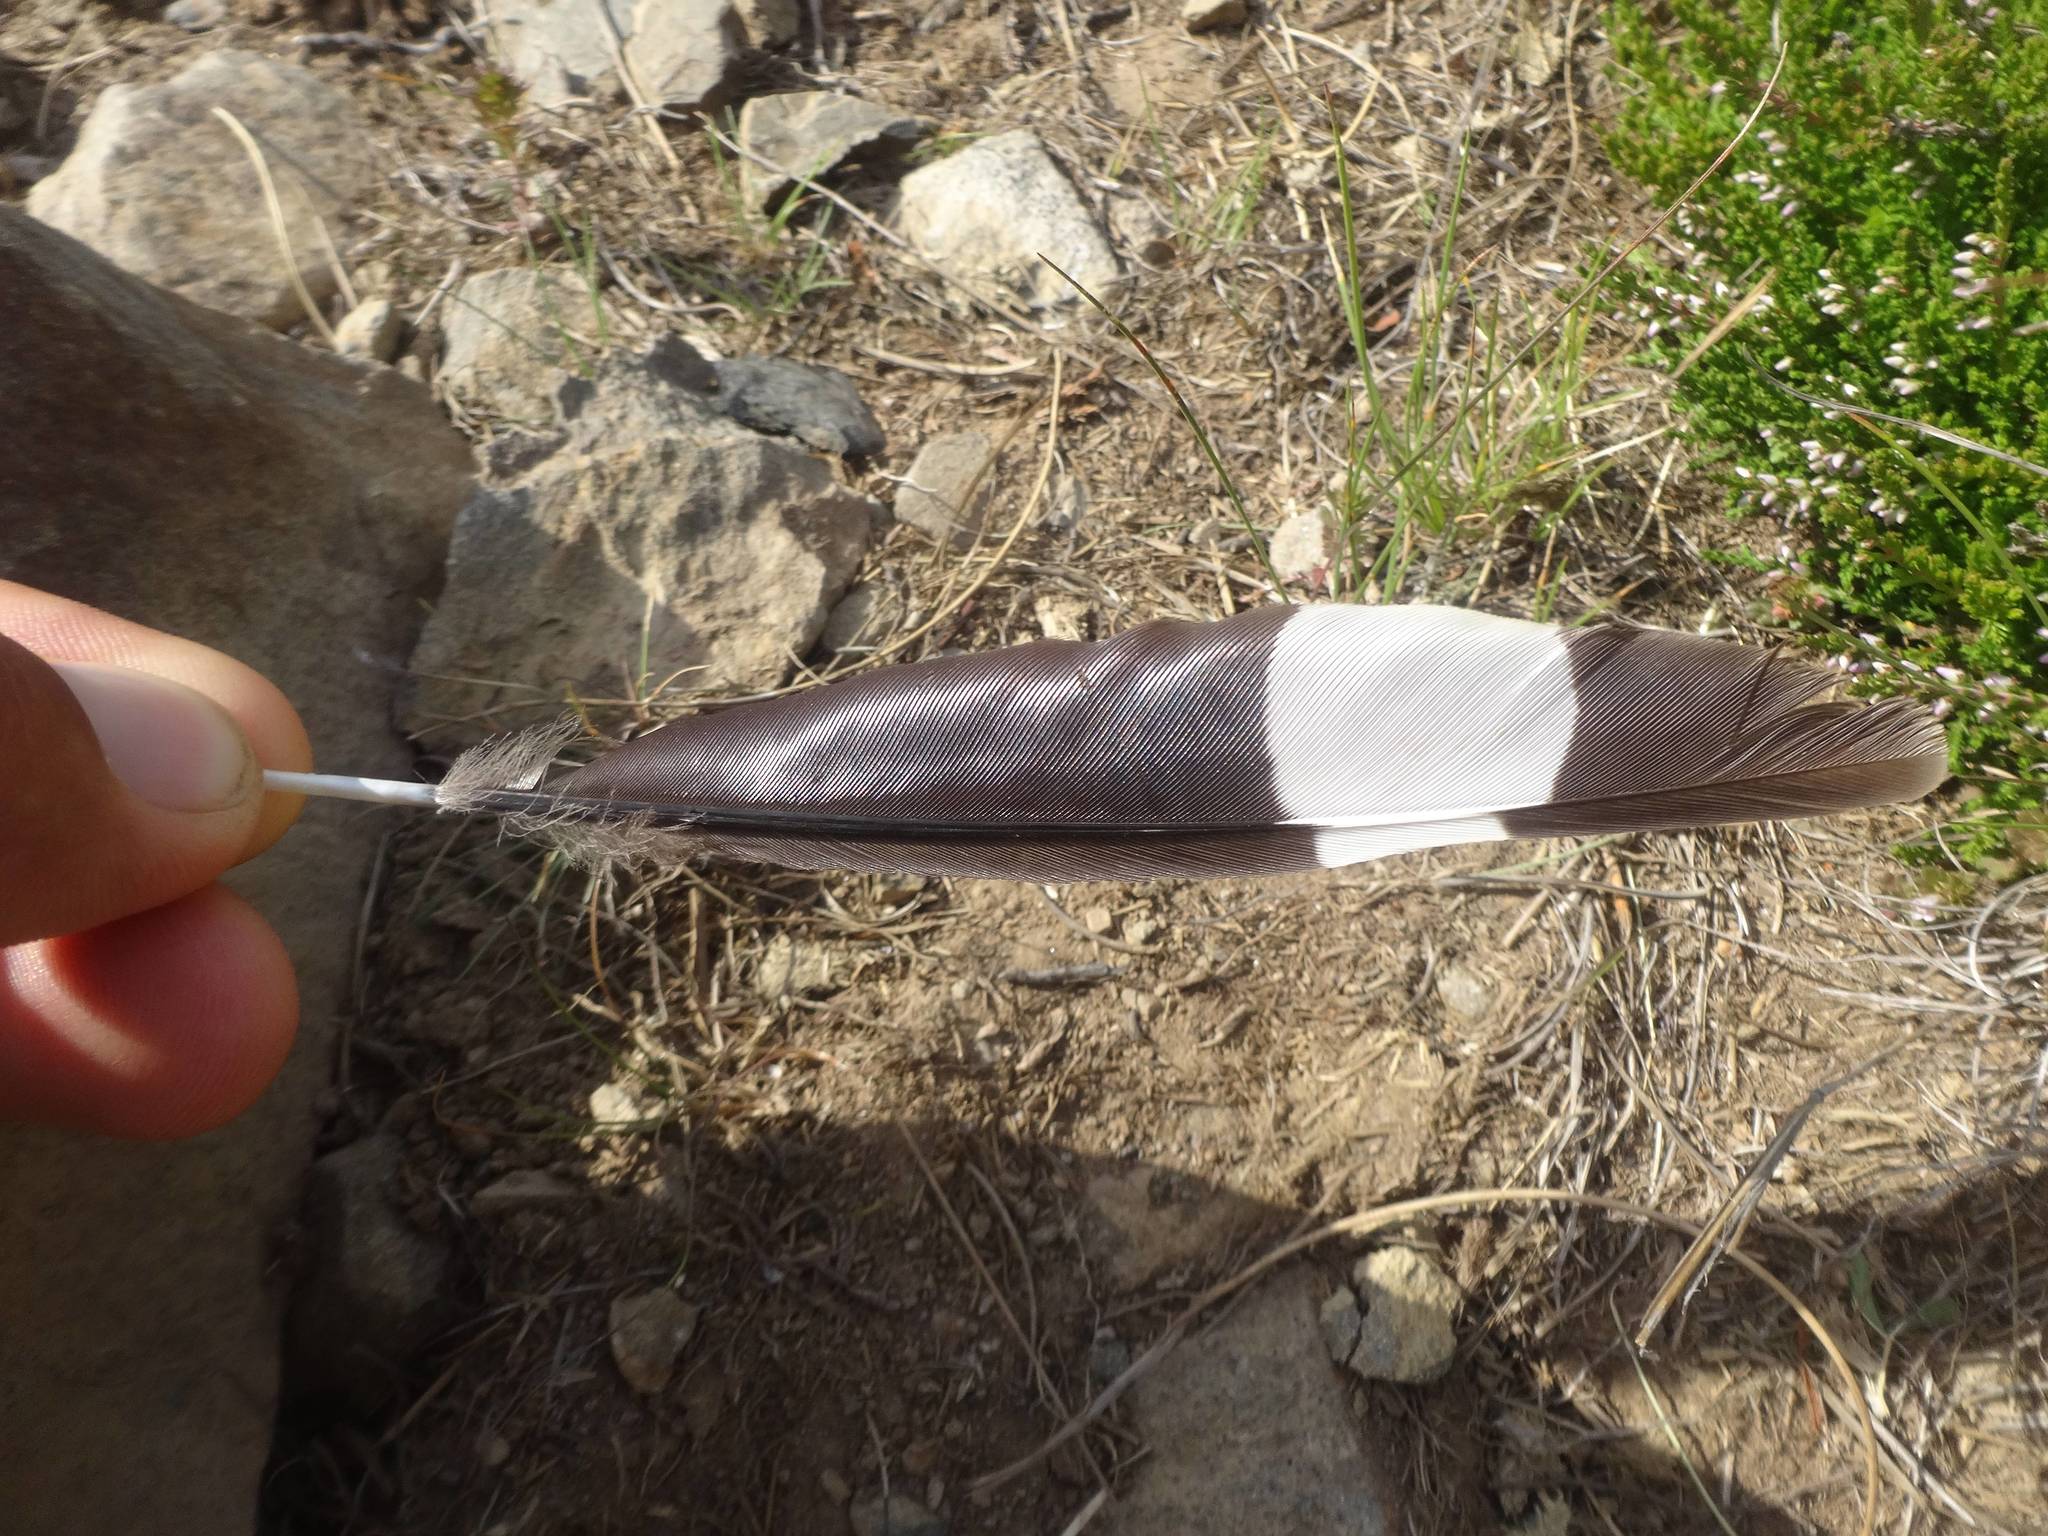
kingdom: Animalia
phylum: Chordata
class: Aves
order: Bucerotiformes
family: Upupidae
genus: Upupa
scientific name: Upupa epops
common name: Eurasian hoopoe
